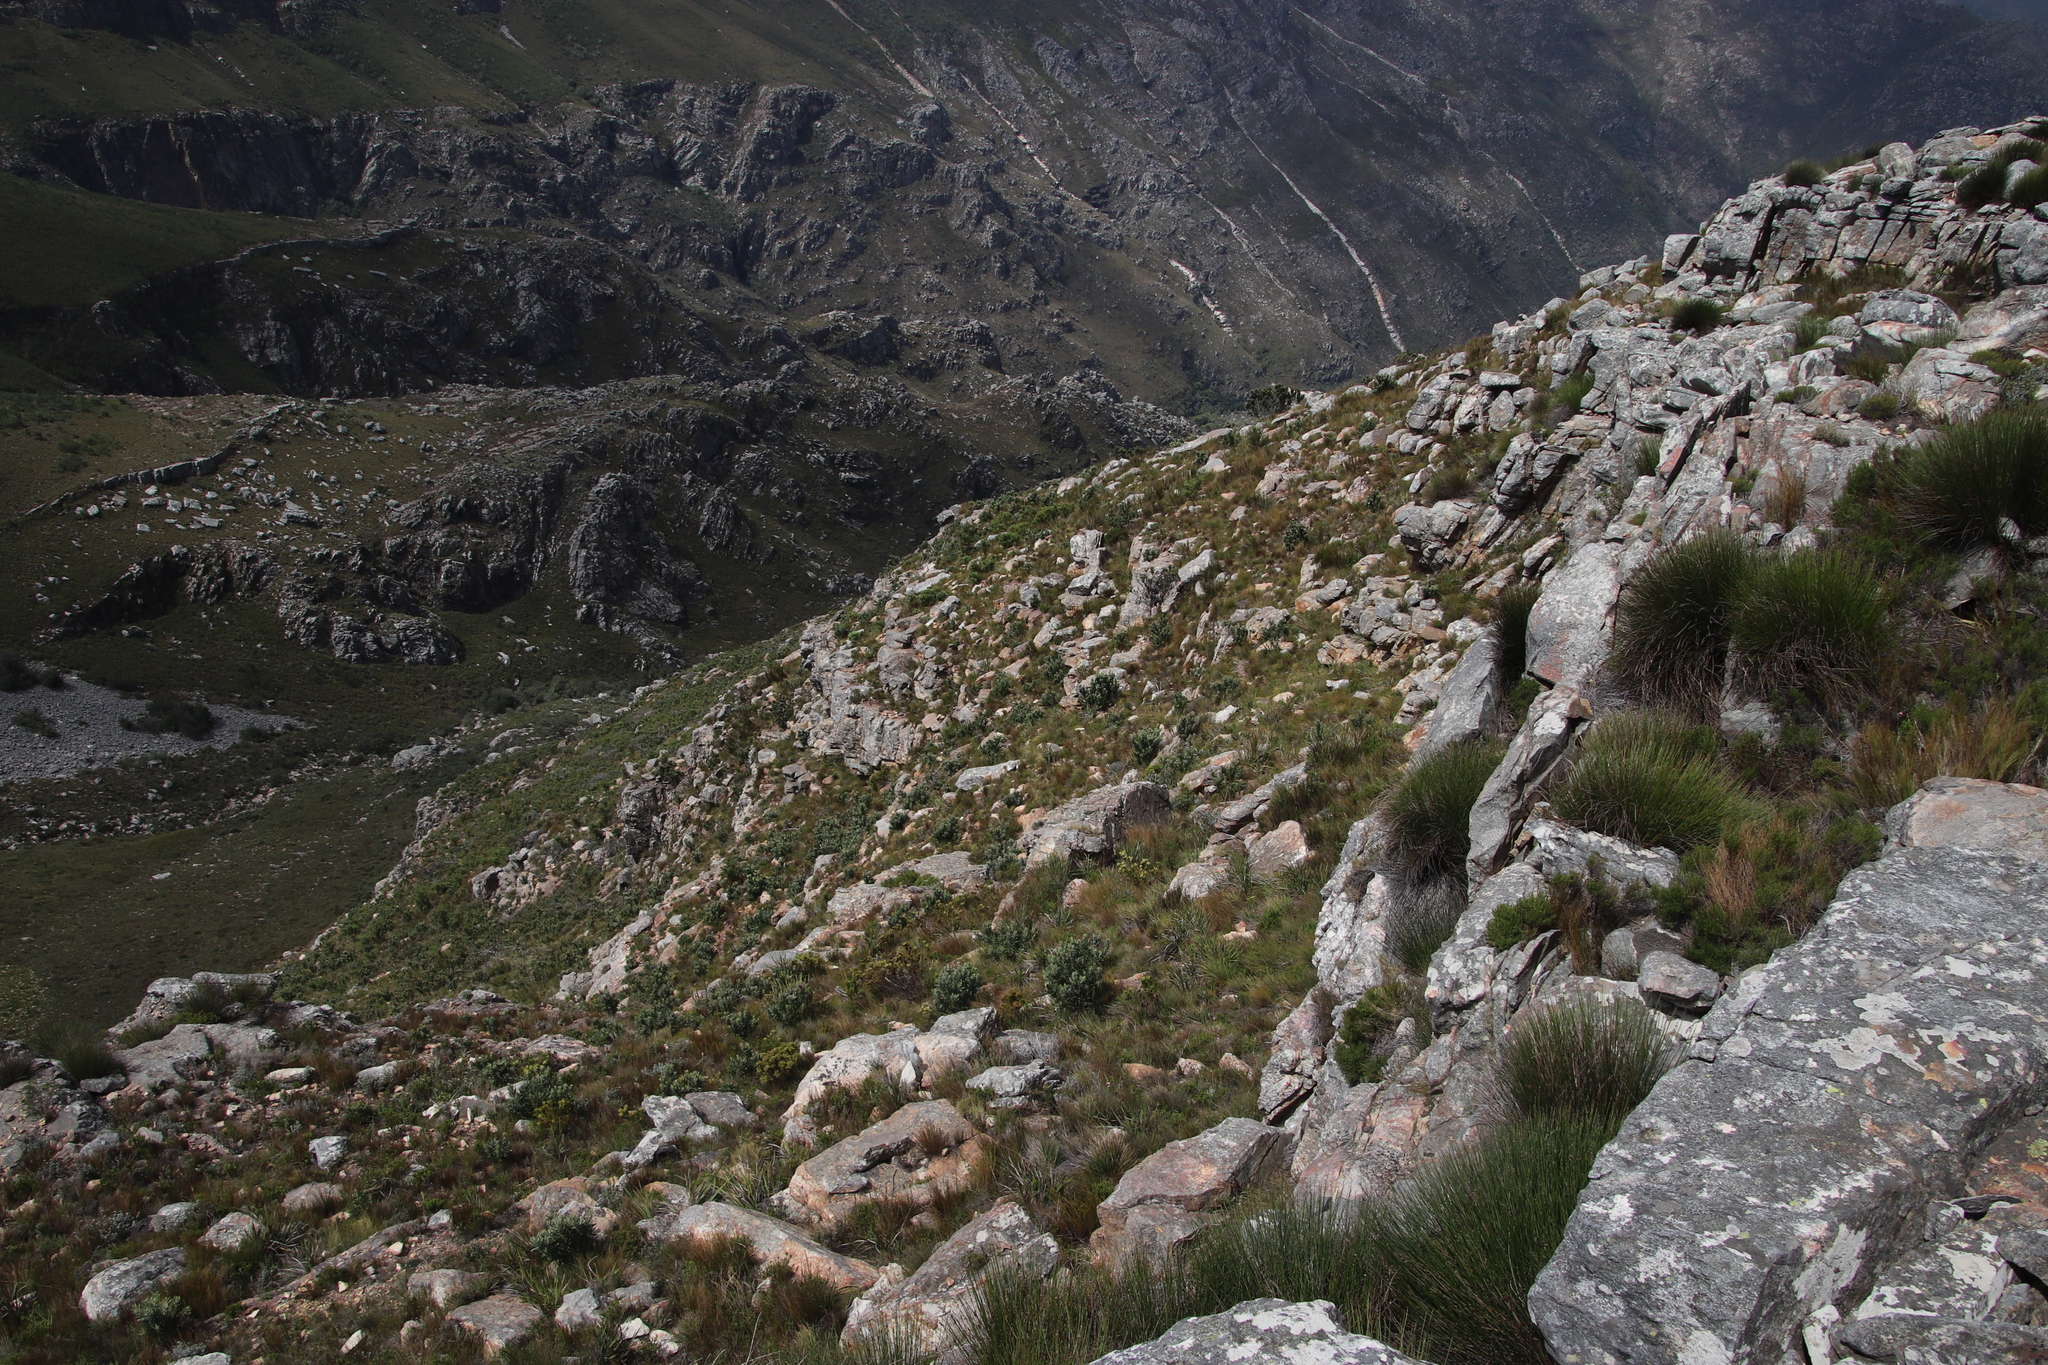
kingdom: Plantae
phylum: Tracheophyta
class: Magnoliopsida
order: Proteales
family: Proteaceae
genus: Protea
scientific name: Protea laurifolia
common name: Grey-leaf sugarbsh
